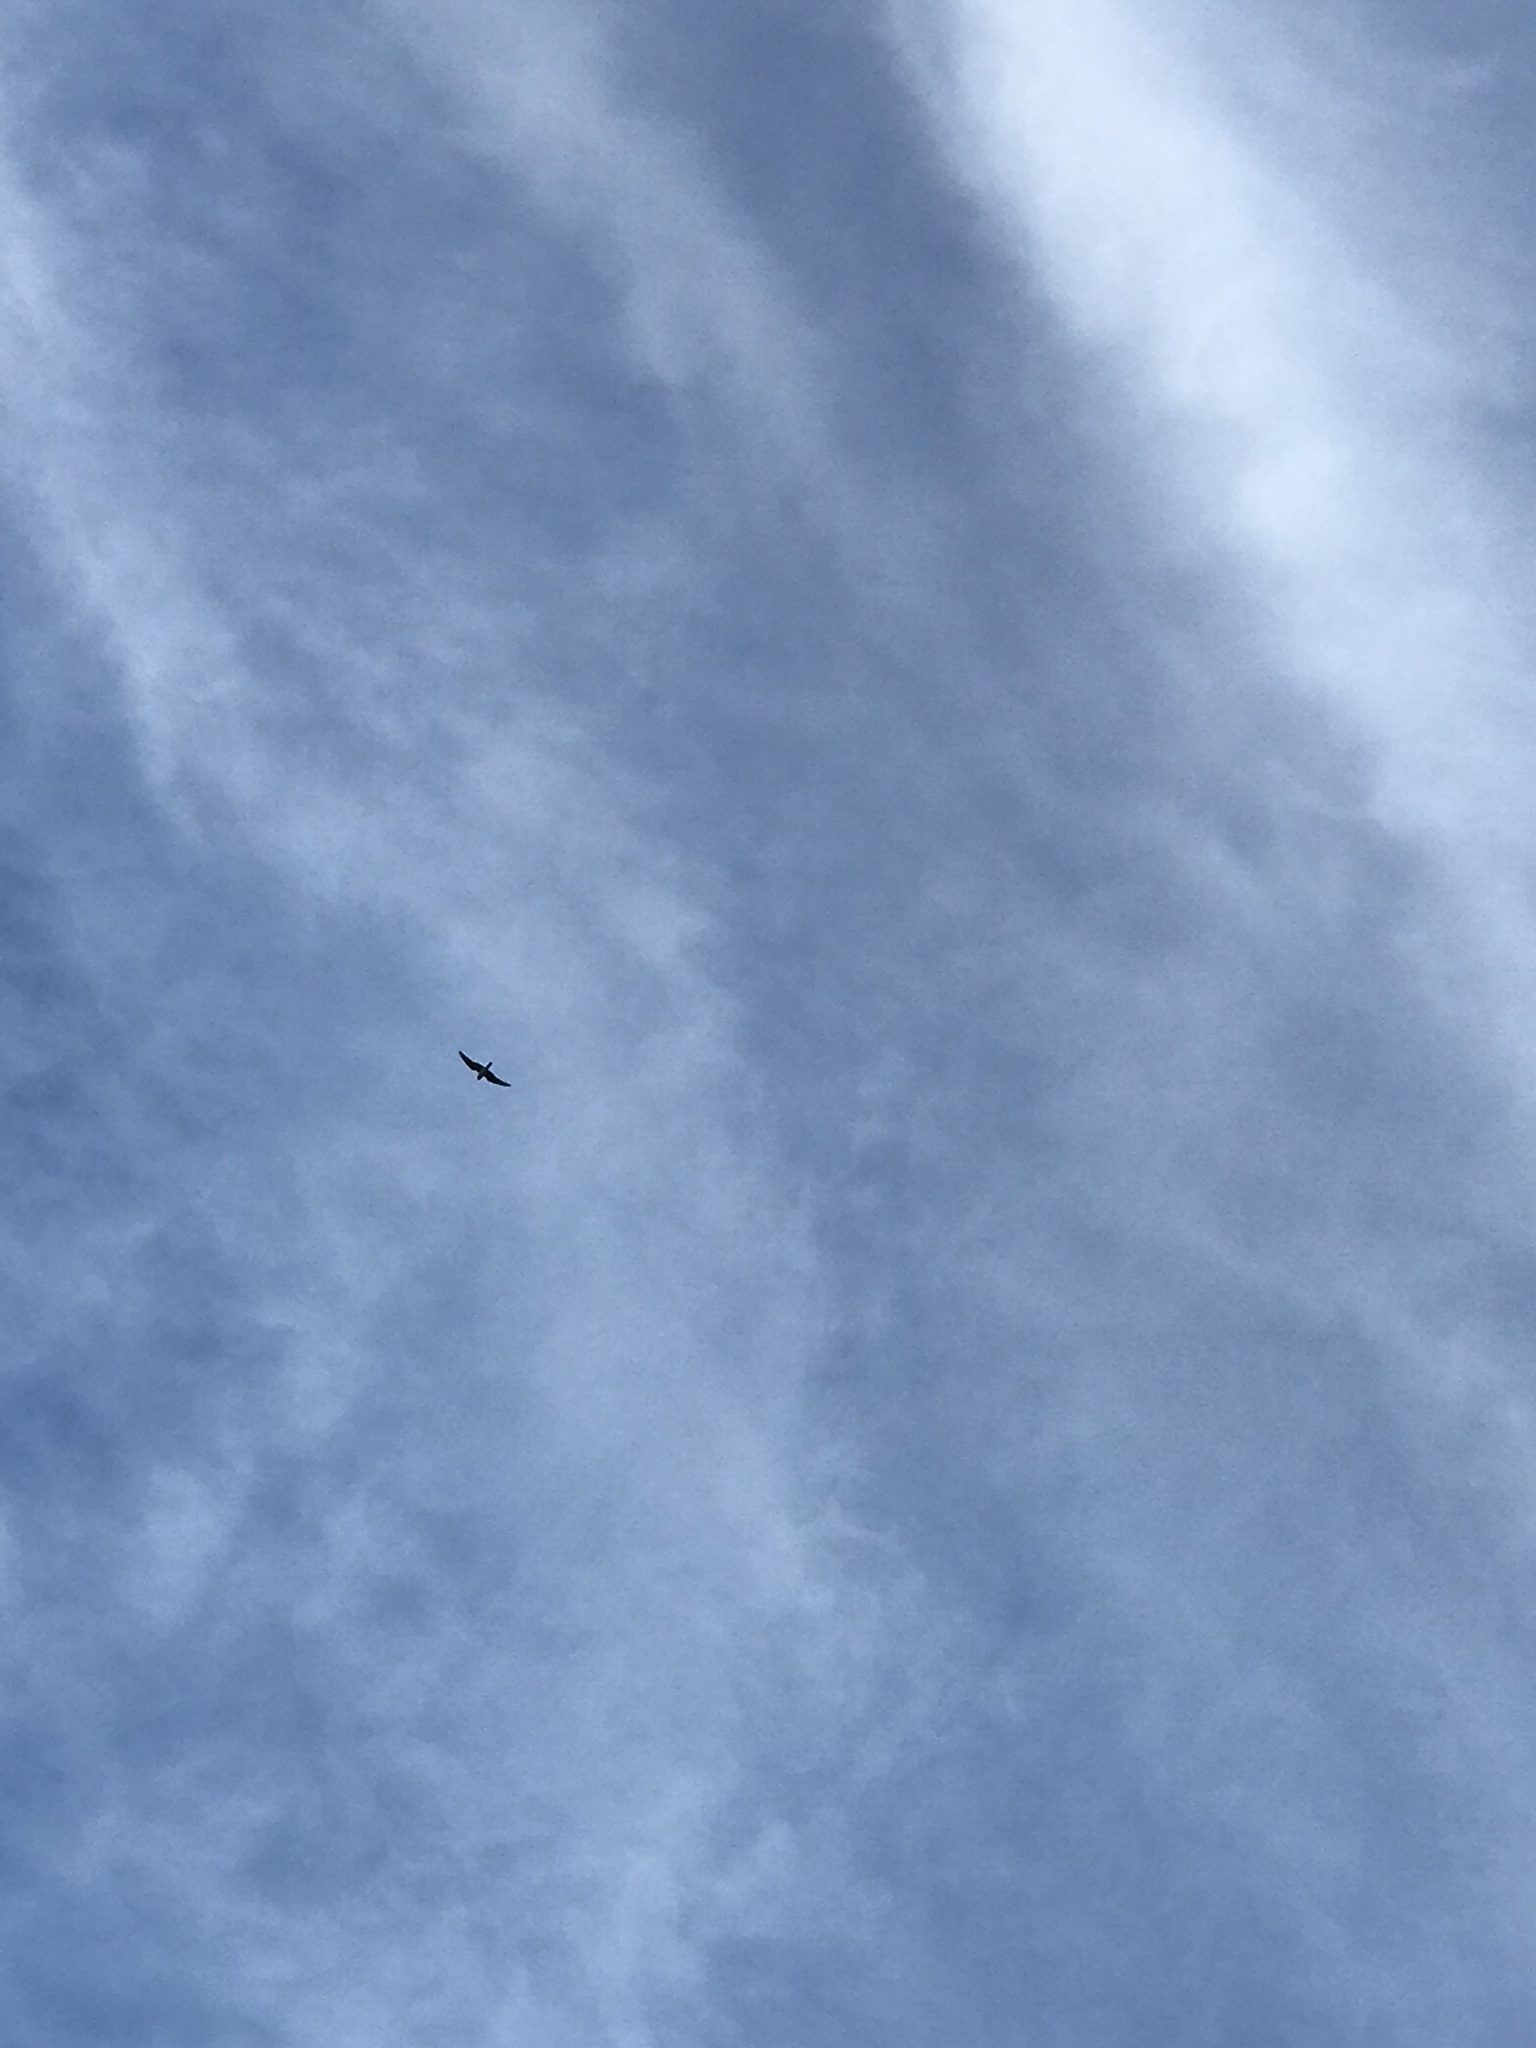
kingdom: Animalia
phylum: Chordata
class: Aves
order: Caprimulgiformes
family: Caprimulgidae
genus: Chordeiles
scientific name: Chordeiles minor
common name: Common nighthawk
